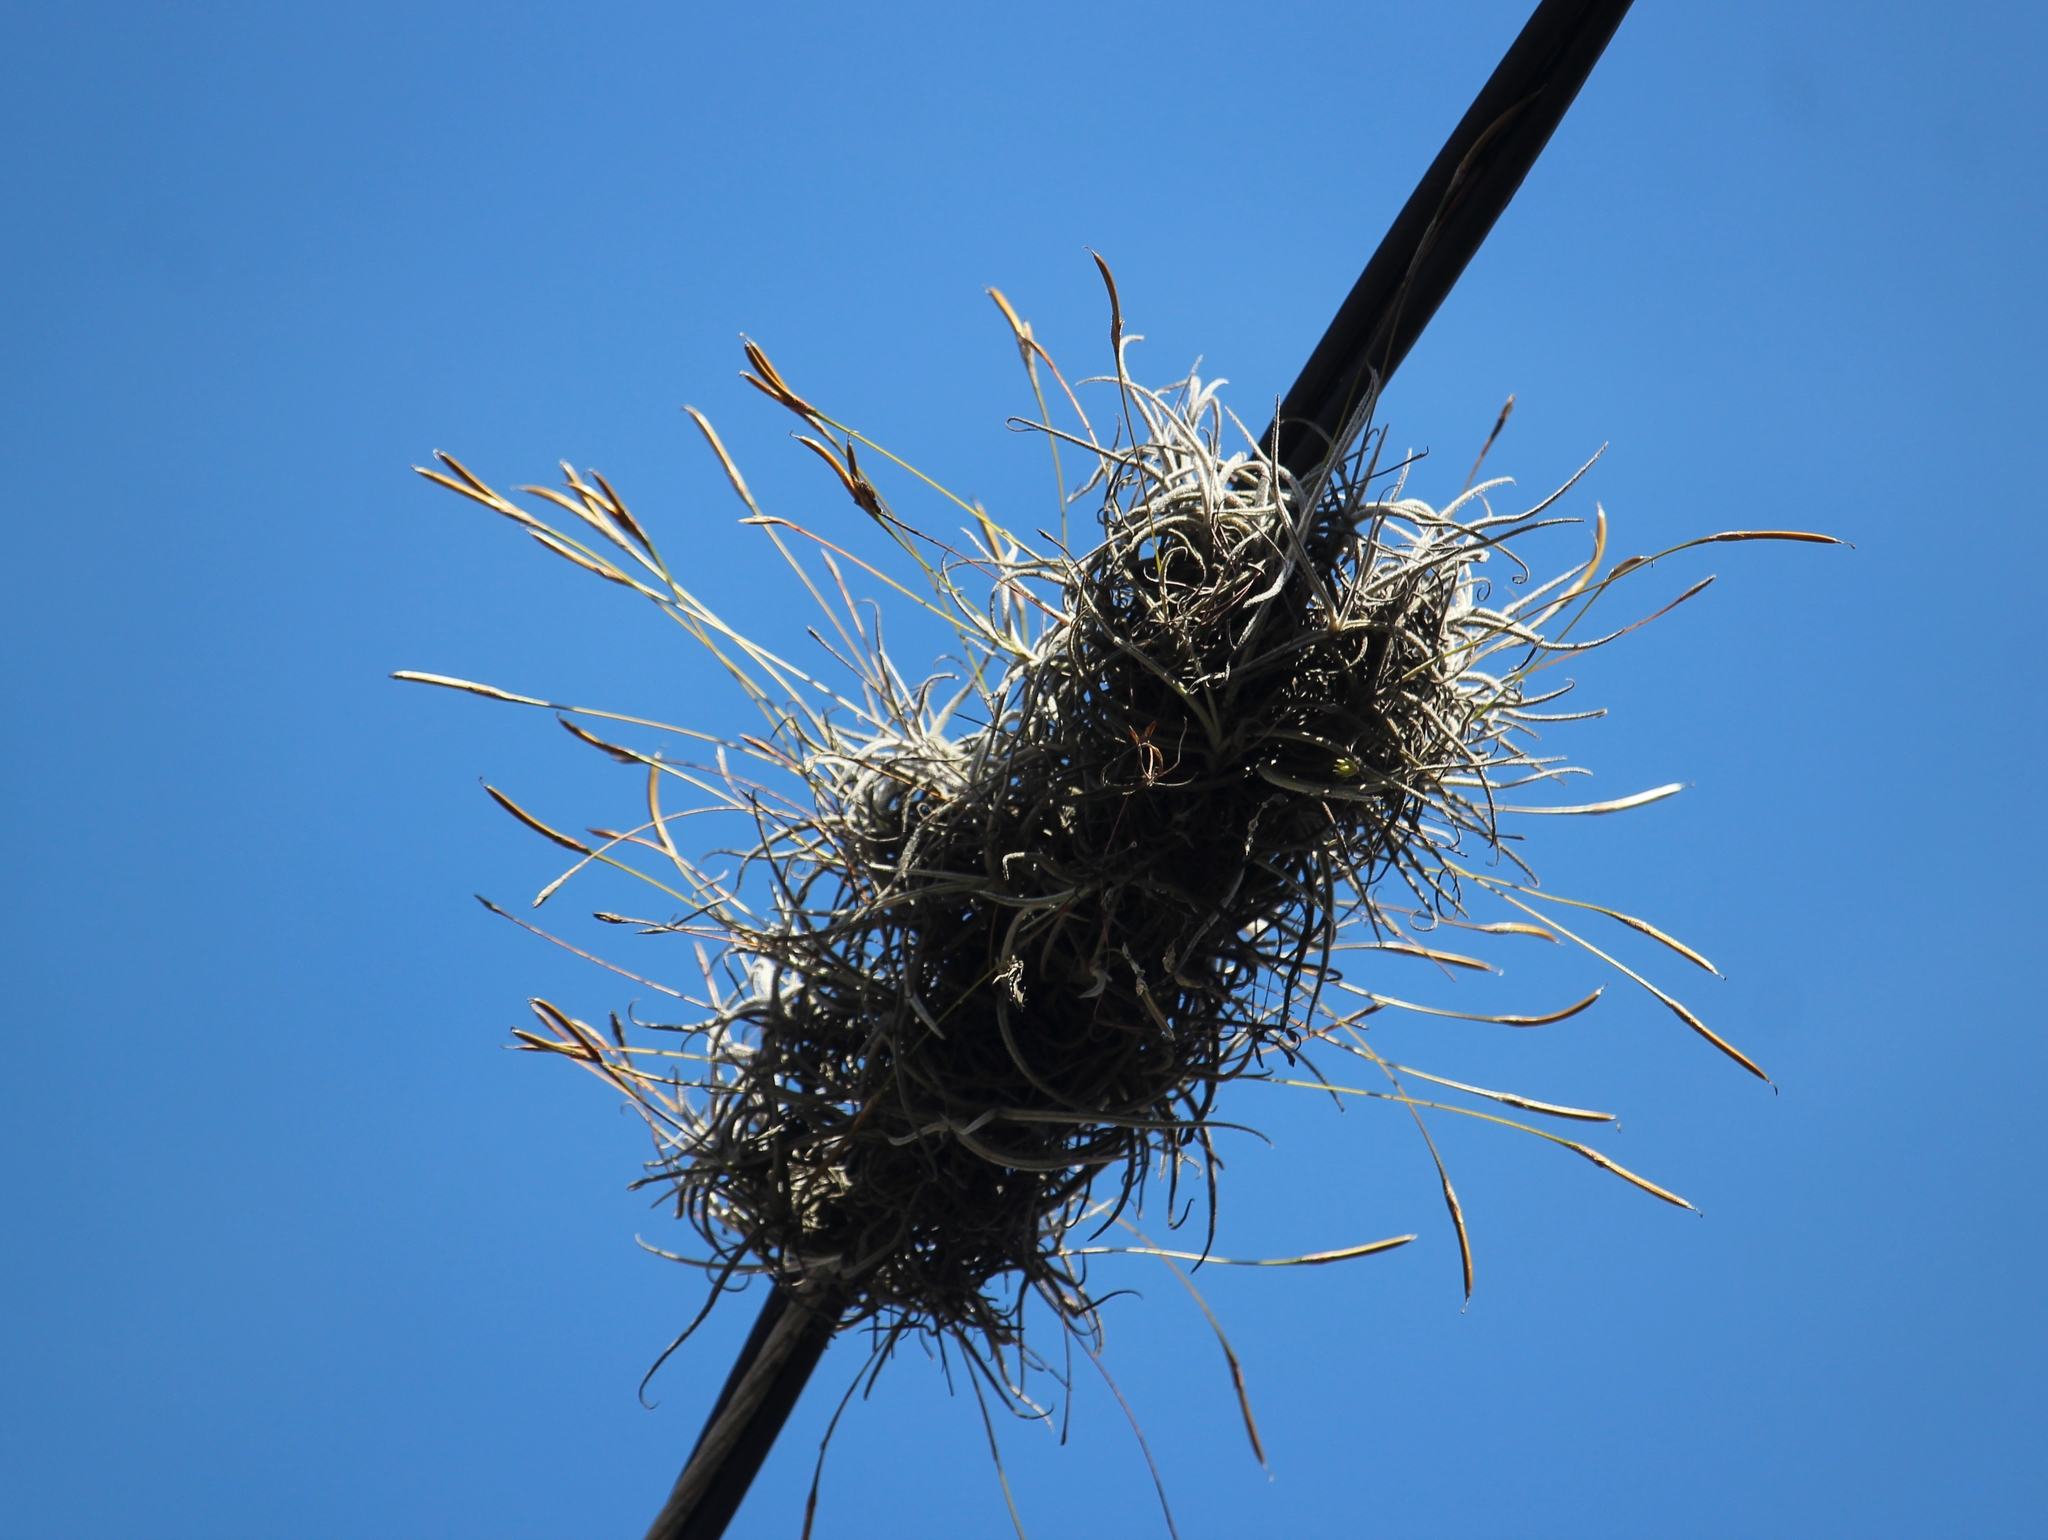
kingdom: Plantae
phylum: Tracheophyta
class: Liliopsida
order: Poales
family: Bromeliaceae
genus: Tillandsia
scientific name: Tillandsia recurvata
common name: Small ballmoss
